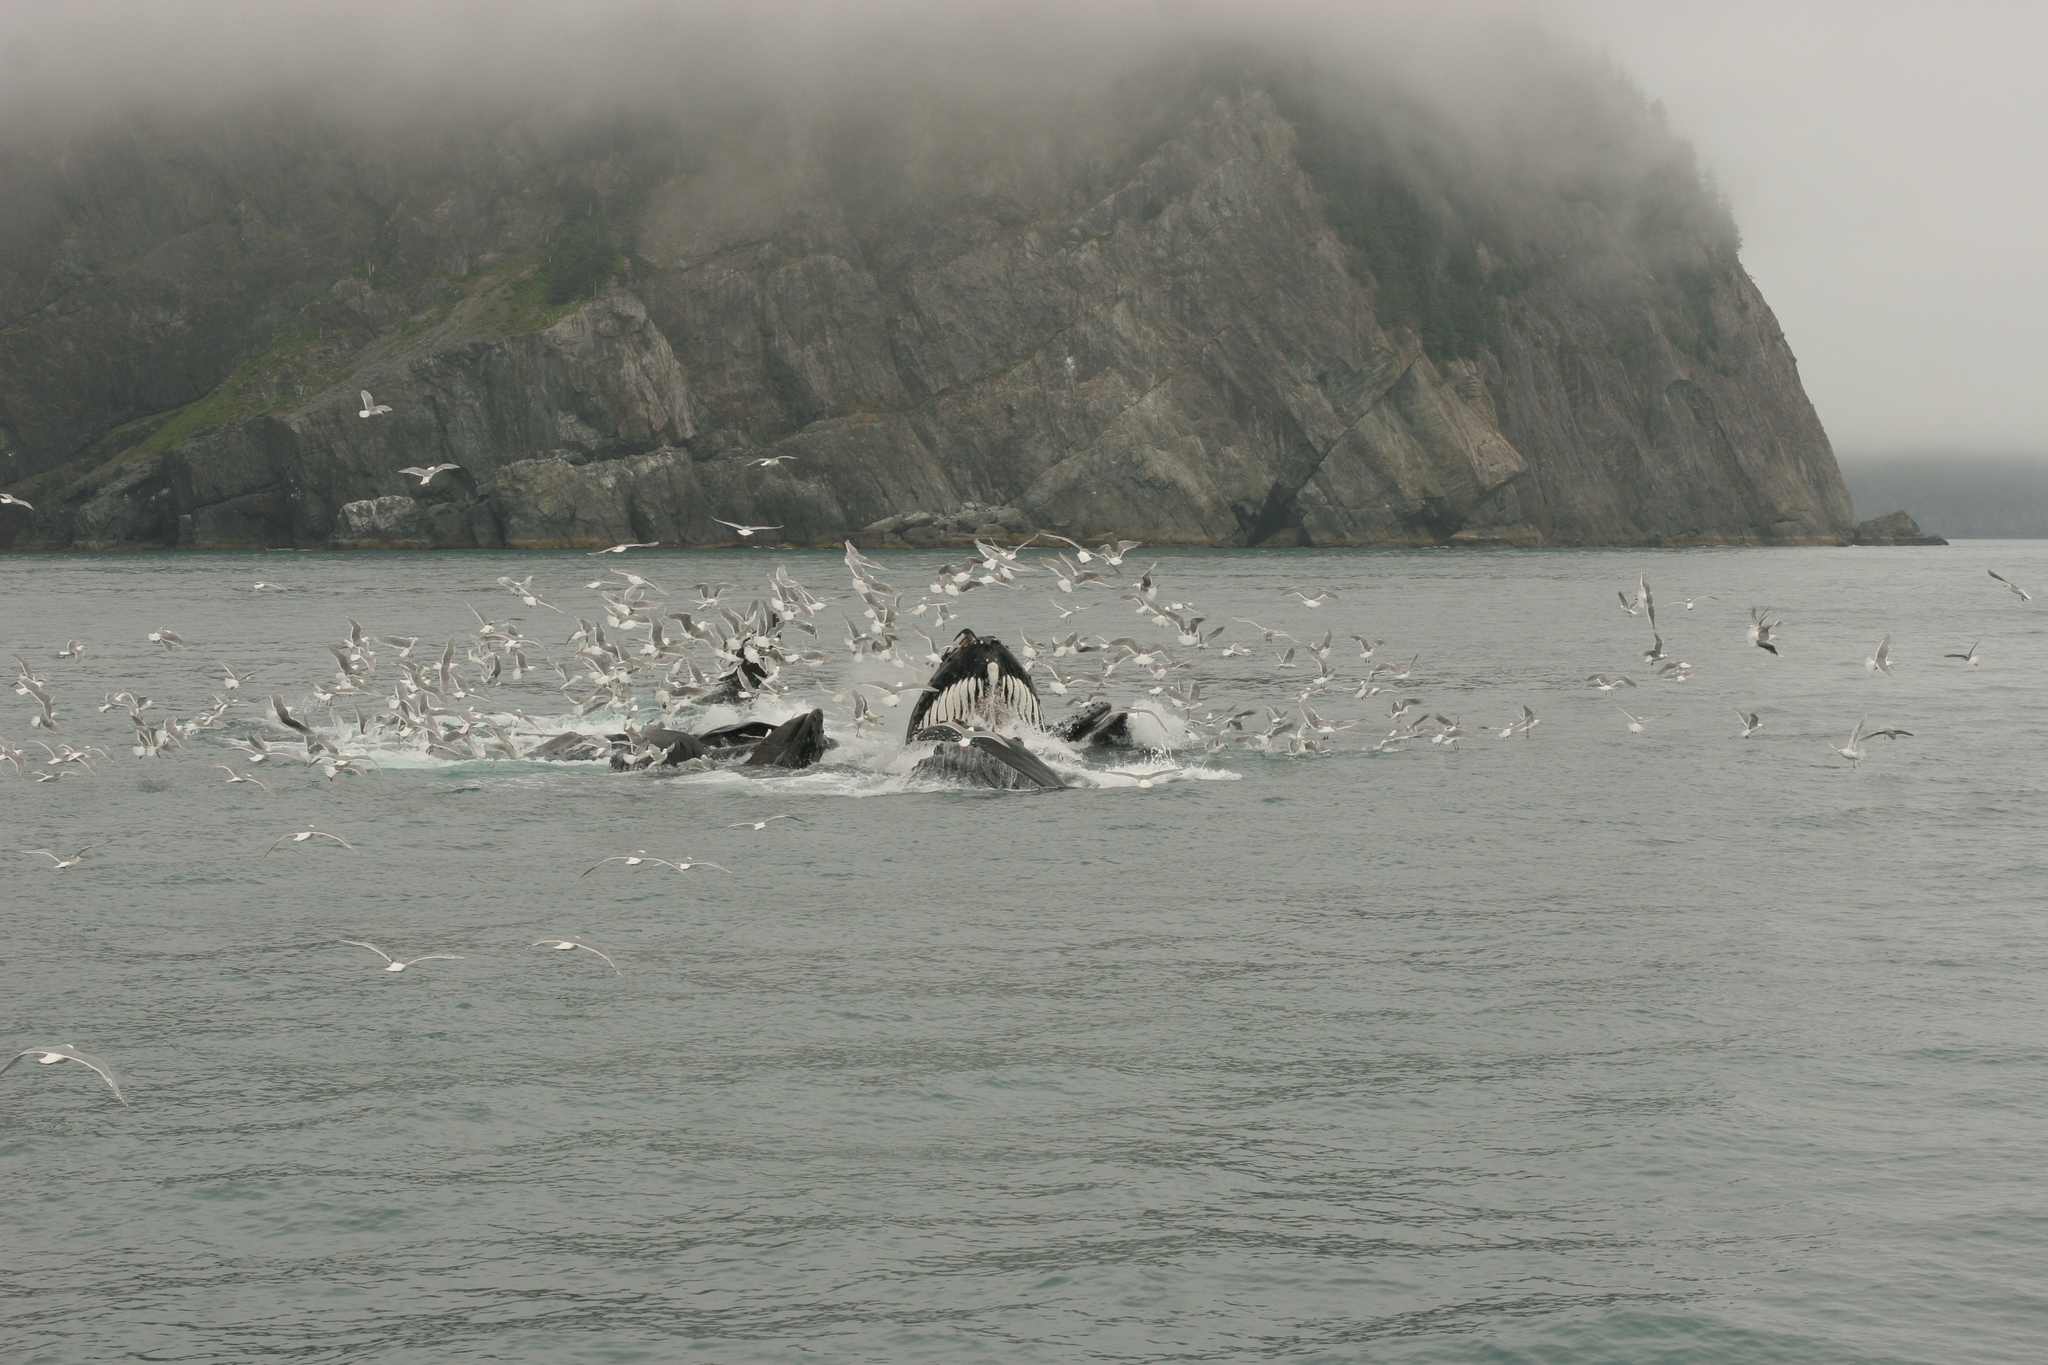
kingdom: Animalia
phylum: Chordata
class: Mammalia
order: Cetacea
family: Balaenopteridae
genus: Megaptera
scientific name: Megaptera novaeangliae
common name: Humpback whale
